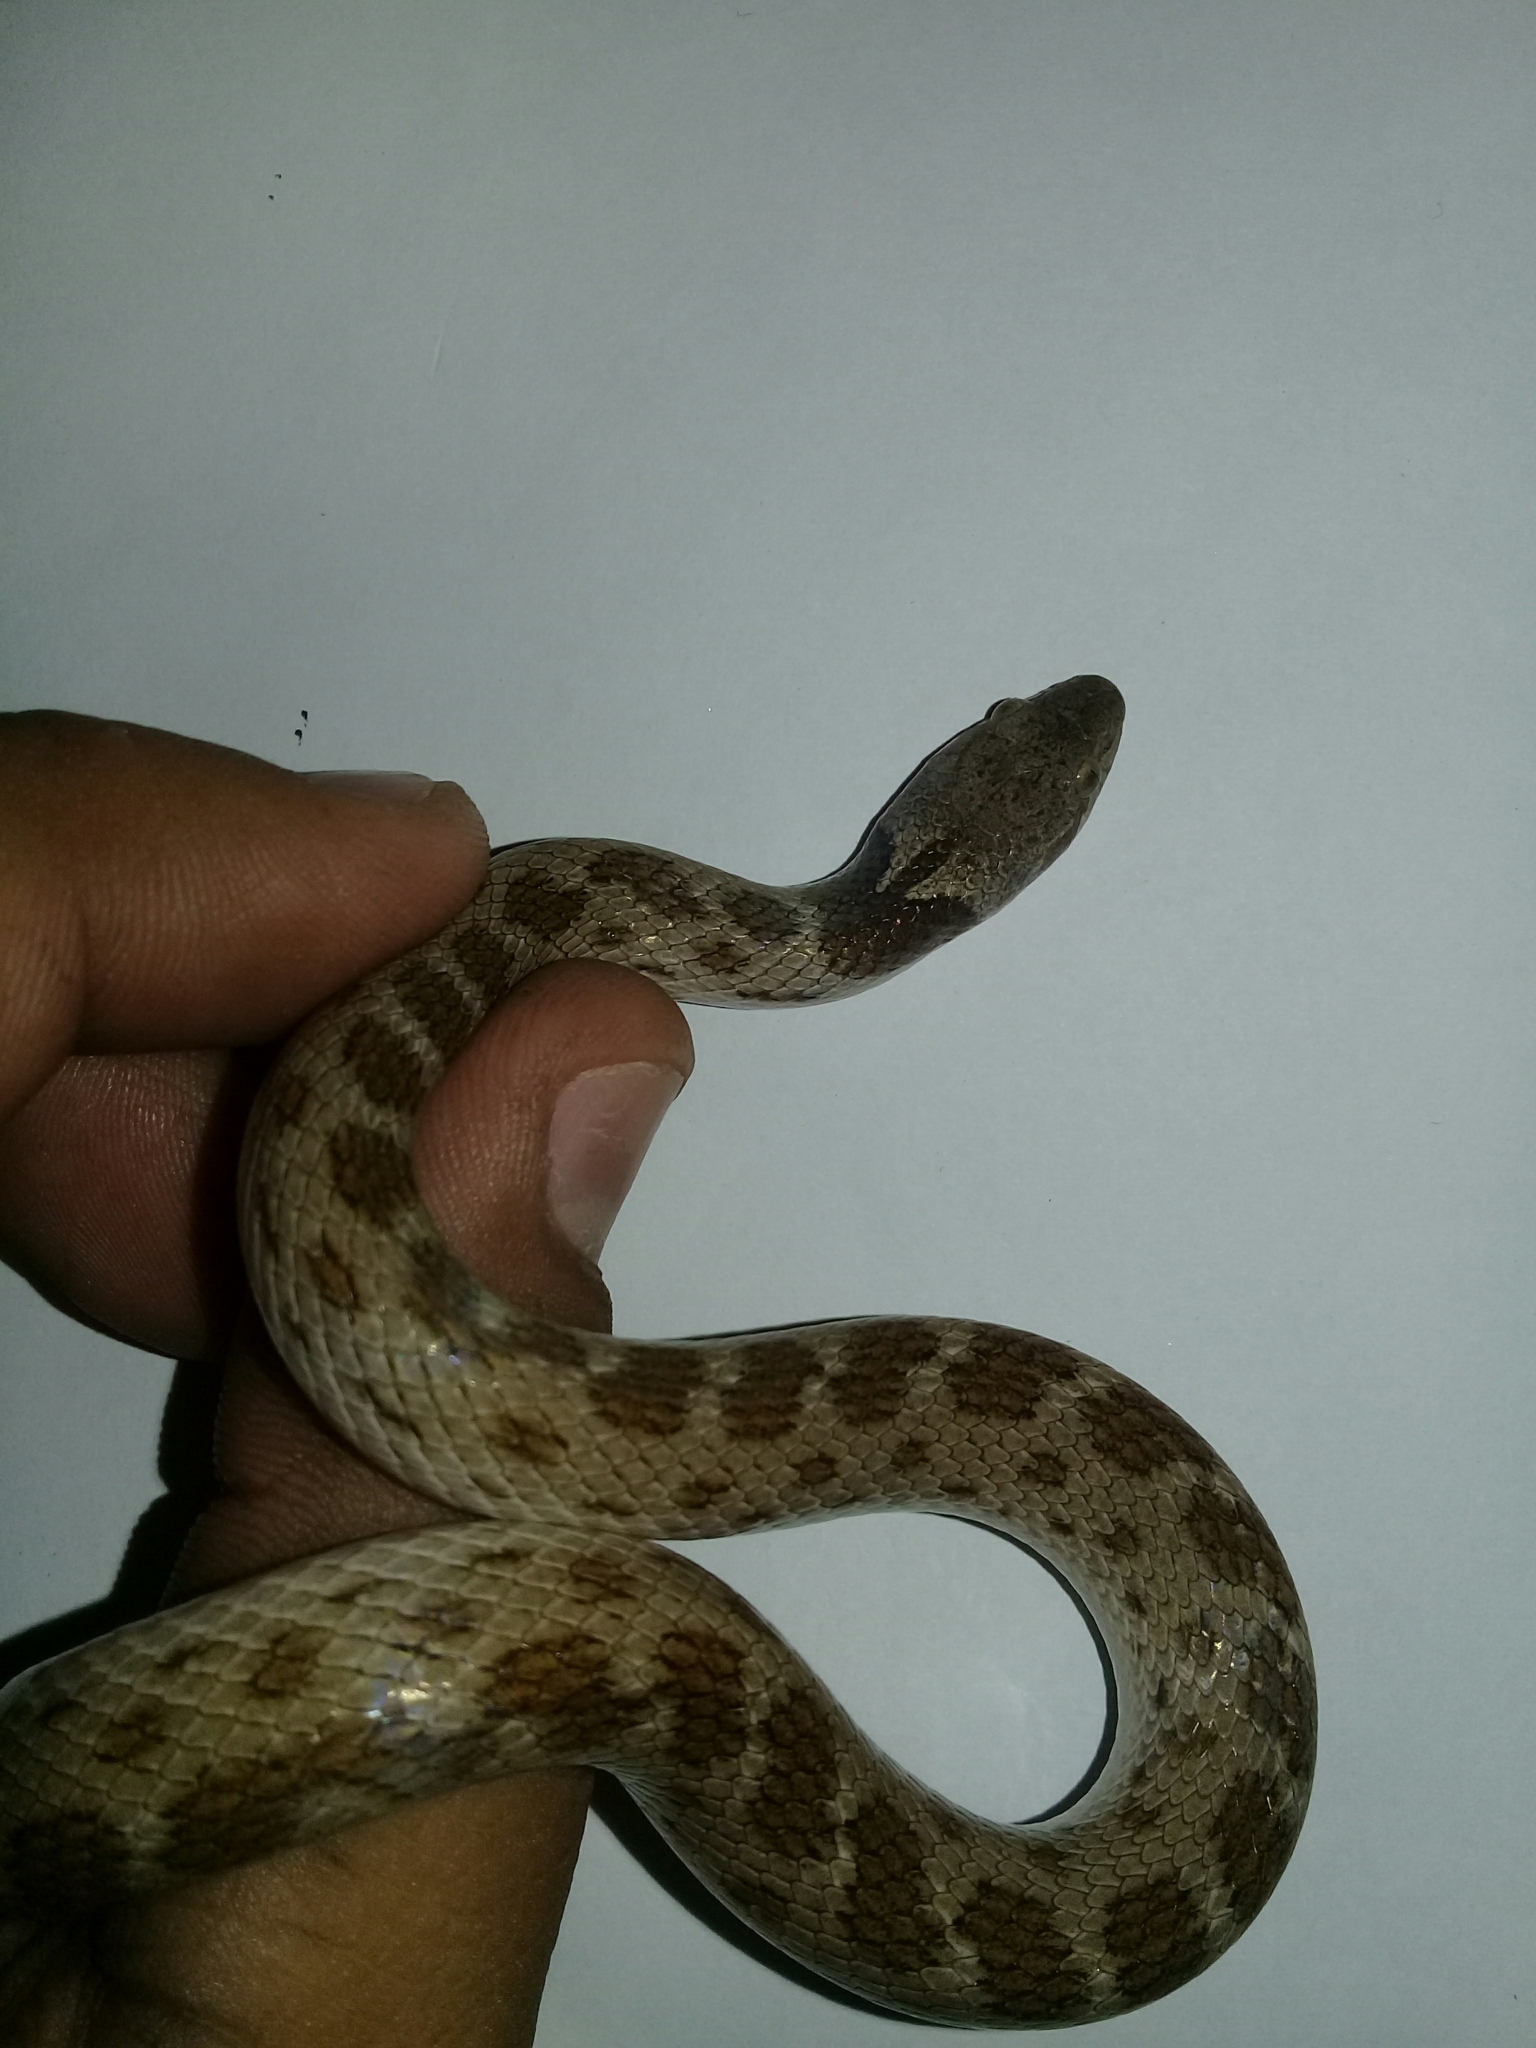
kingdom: Animalia
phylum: Chordata
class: Squamata
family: Colubridae
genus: Hypsiglena
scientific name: Hypsiglena torquata
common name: Night snake
